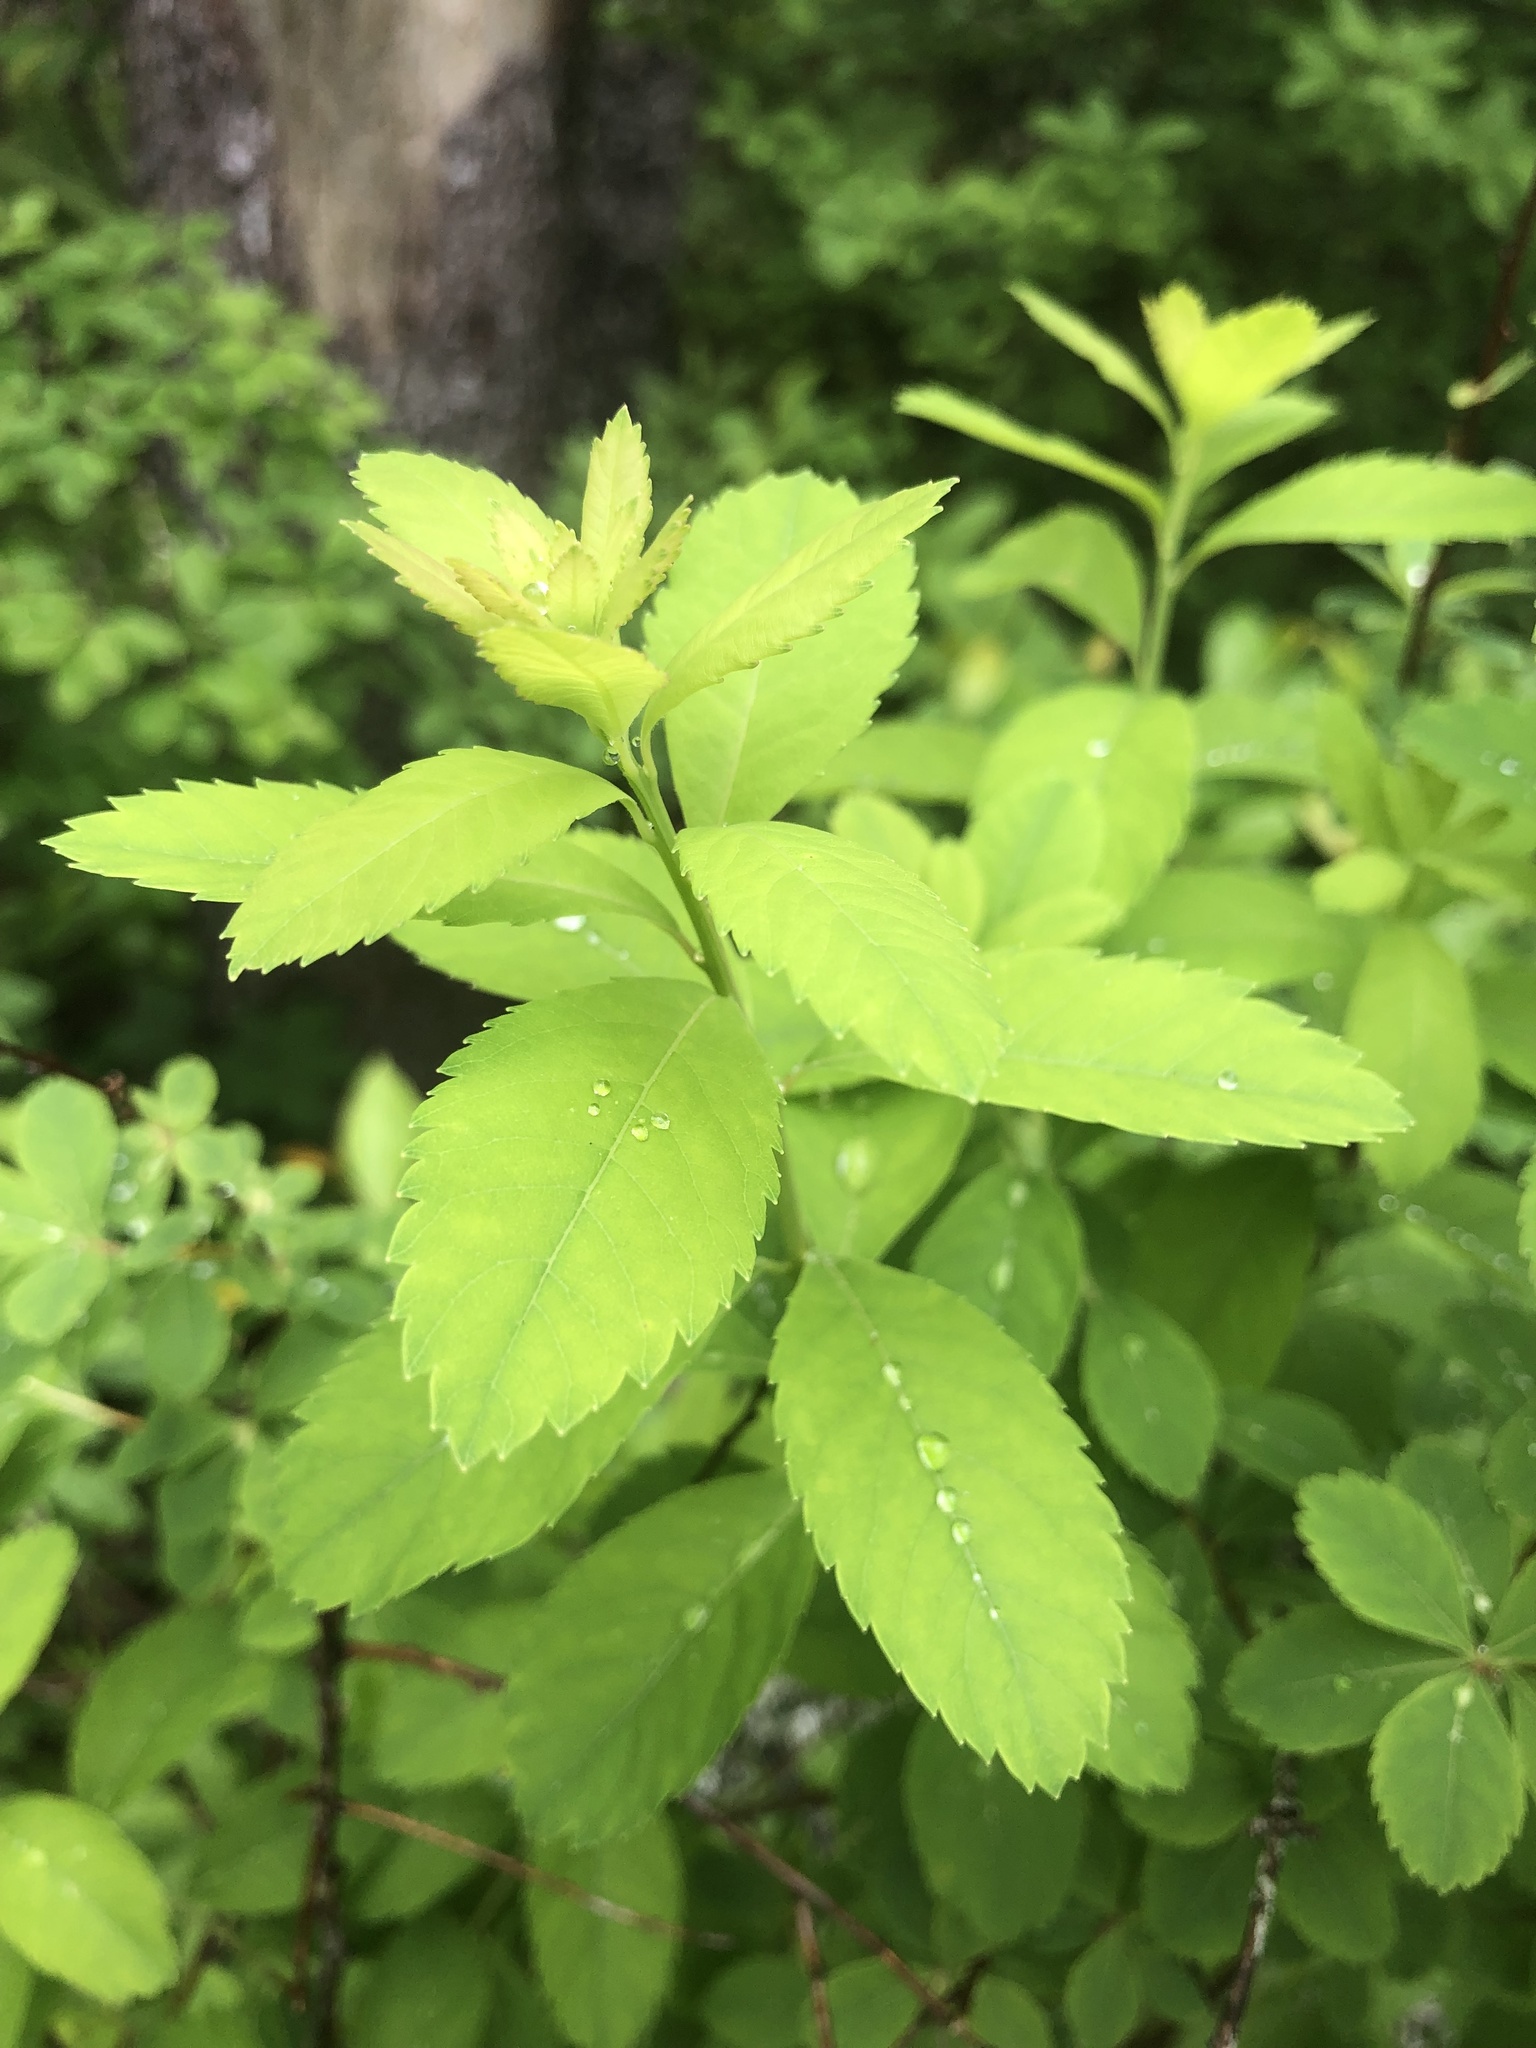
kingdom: Plantae
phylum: Tracheophyta
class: Magnoliopsida
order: Rosales
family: Rosaceae
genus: Spiraea
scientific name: Spiraea alba
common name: Pale bridewort
